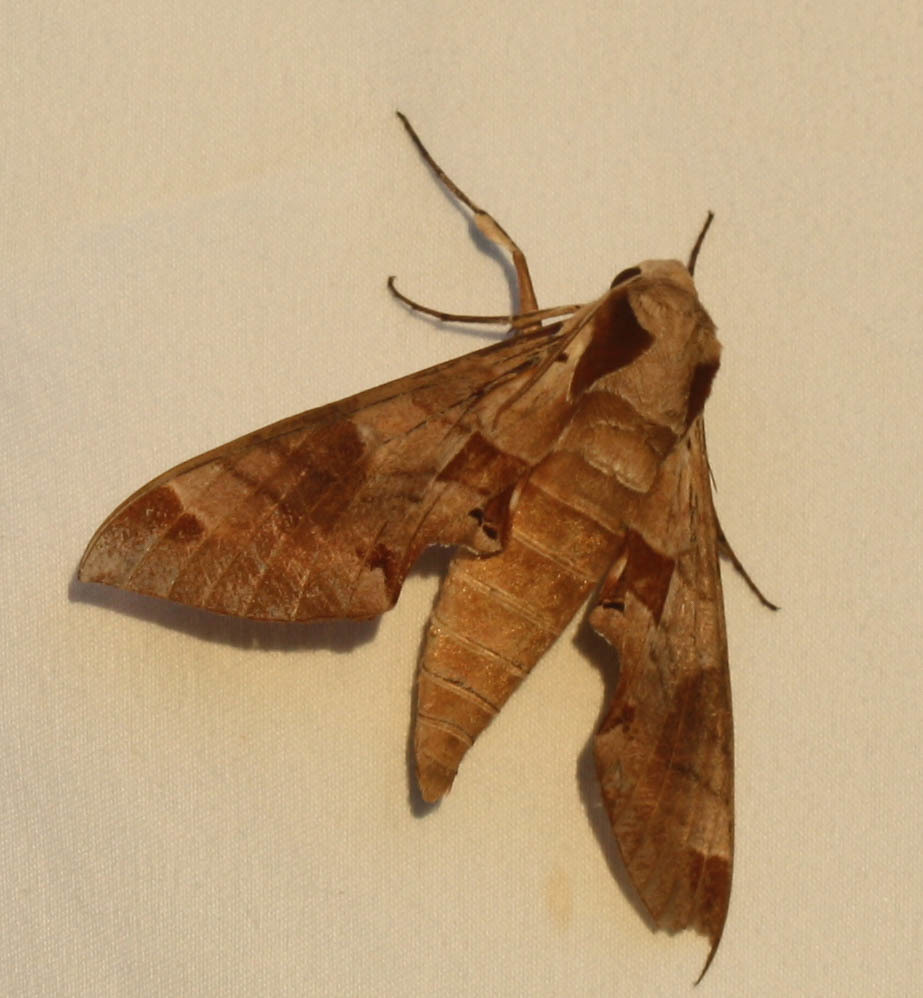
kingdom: Animalia
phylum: Arthropoda
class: Insecta
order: Lepidoptera
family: Sphingidae
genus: Eumorpha
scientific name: Eumorpha achemon
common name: Achemon sphinx
